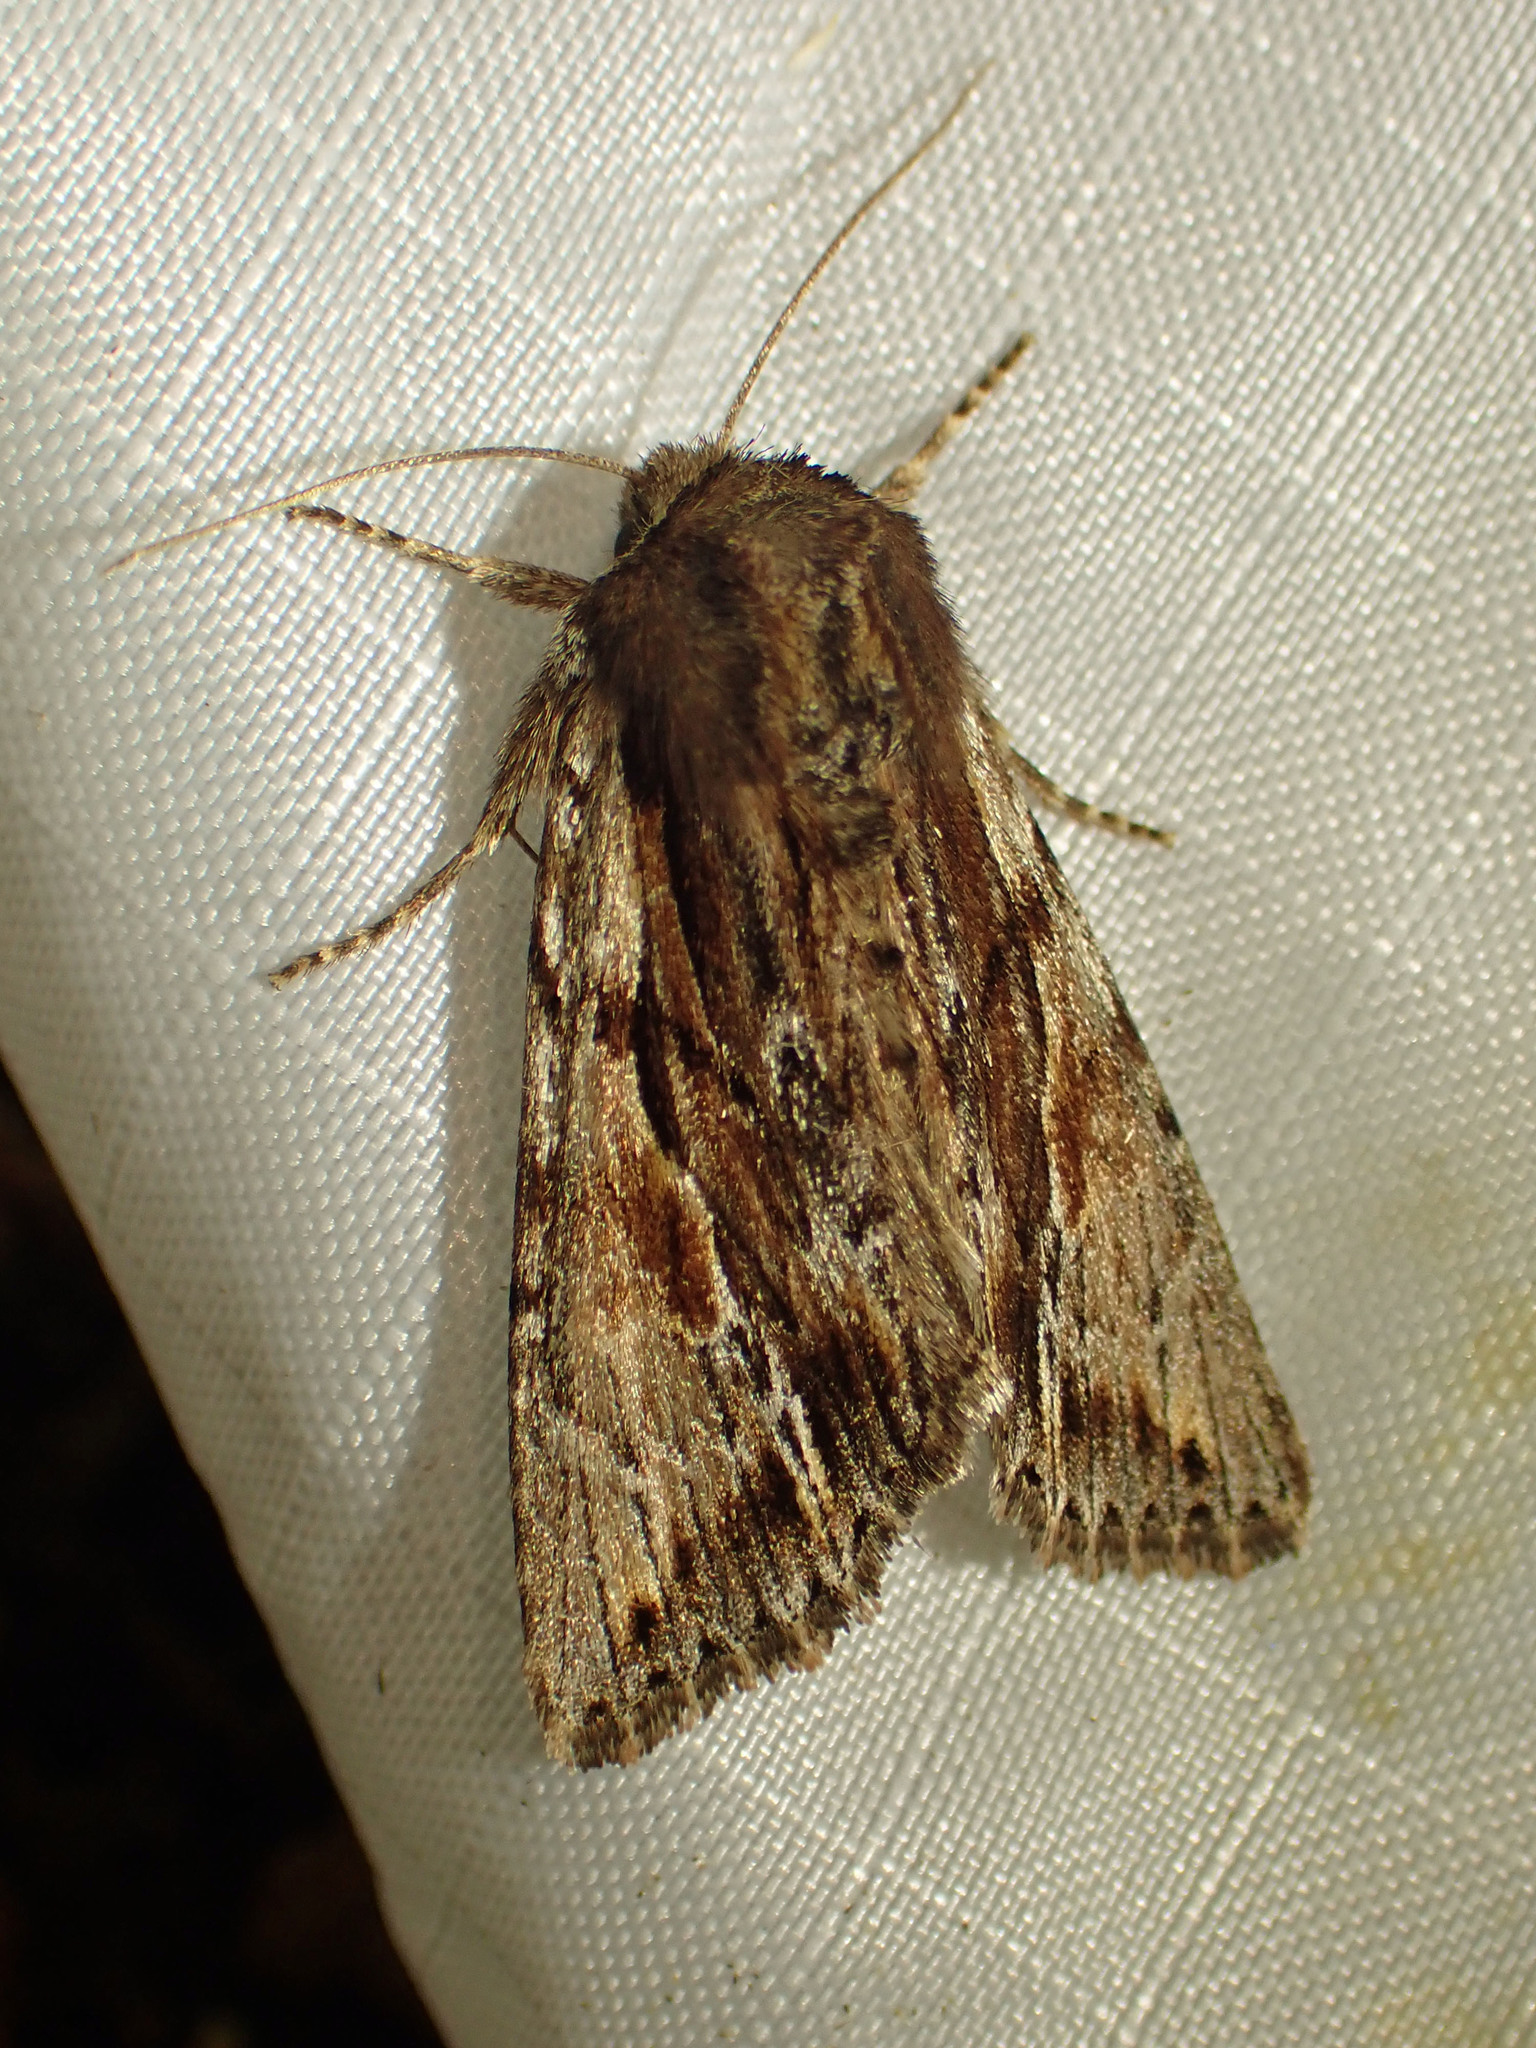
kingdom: Animalia
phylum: Arthropoda
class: Insecta
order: Lepidoptera
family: Noctuidae
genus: Achatia
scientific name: Achatia evicta
